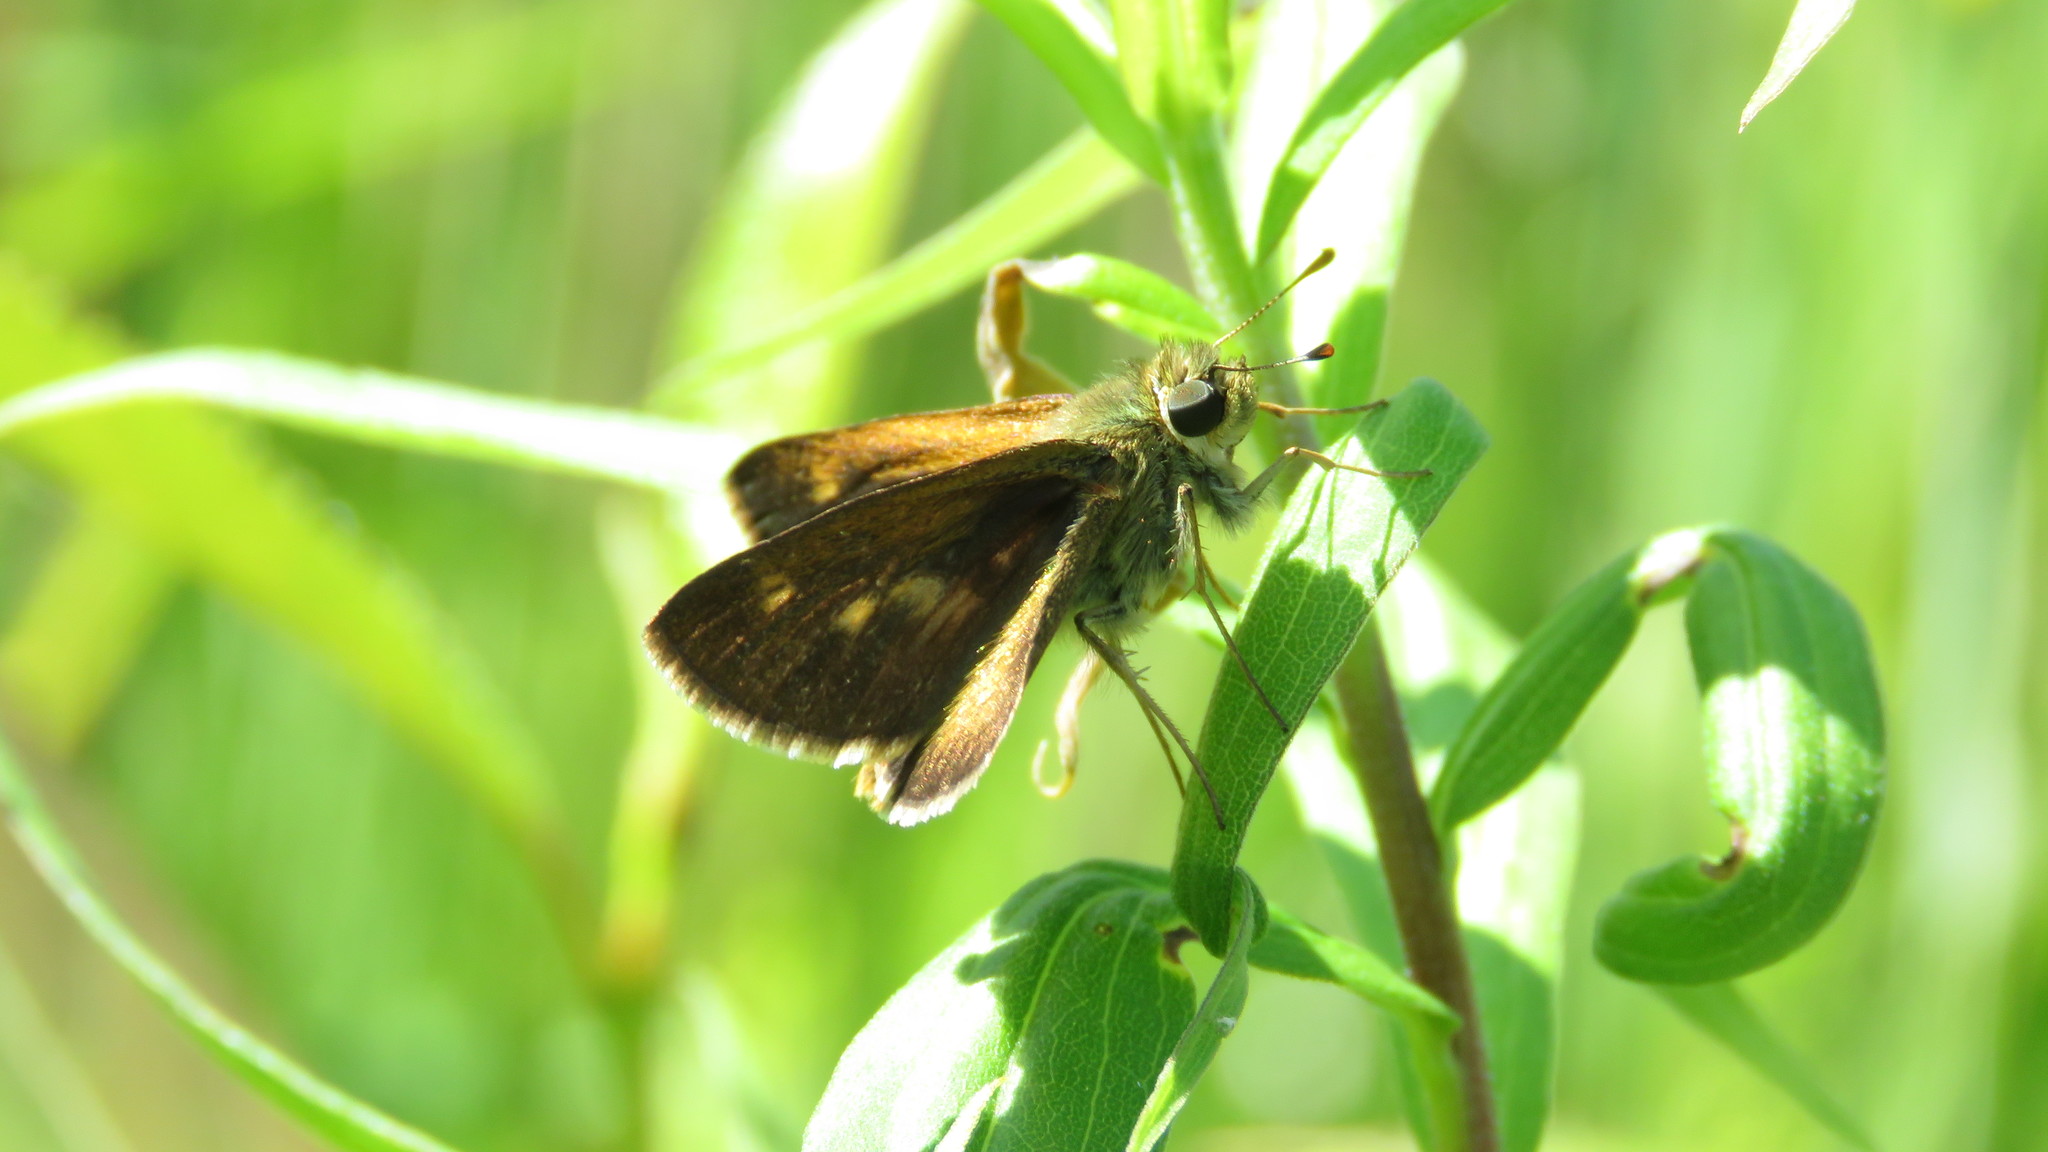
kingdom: Animalia
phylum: Arthropoda
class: Insecta
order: Lepidoptera
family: Hesperiidae
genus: Polites
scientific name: Polites egeremet
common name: Northern broken-dash
